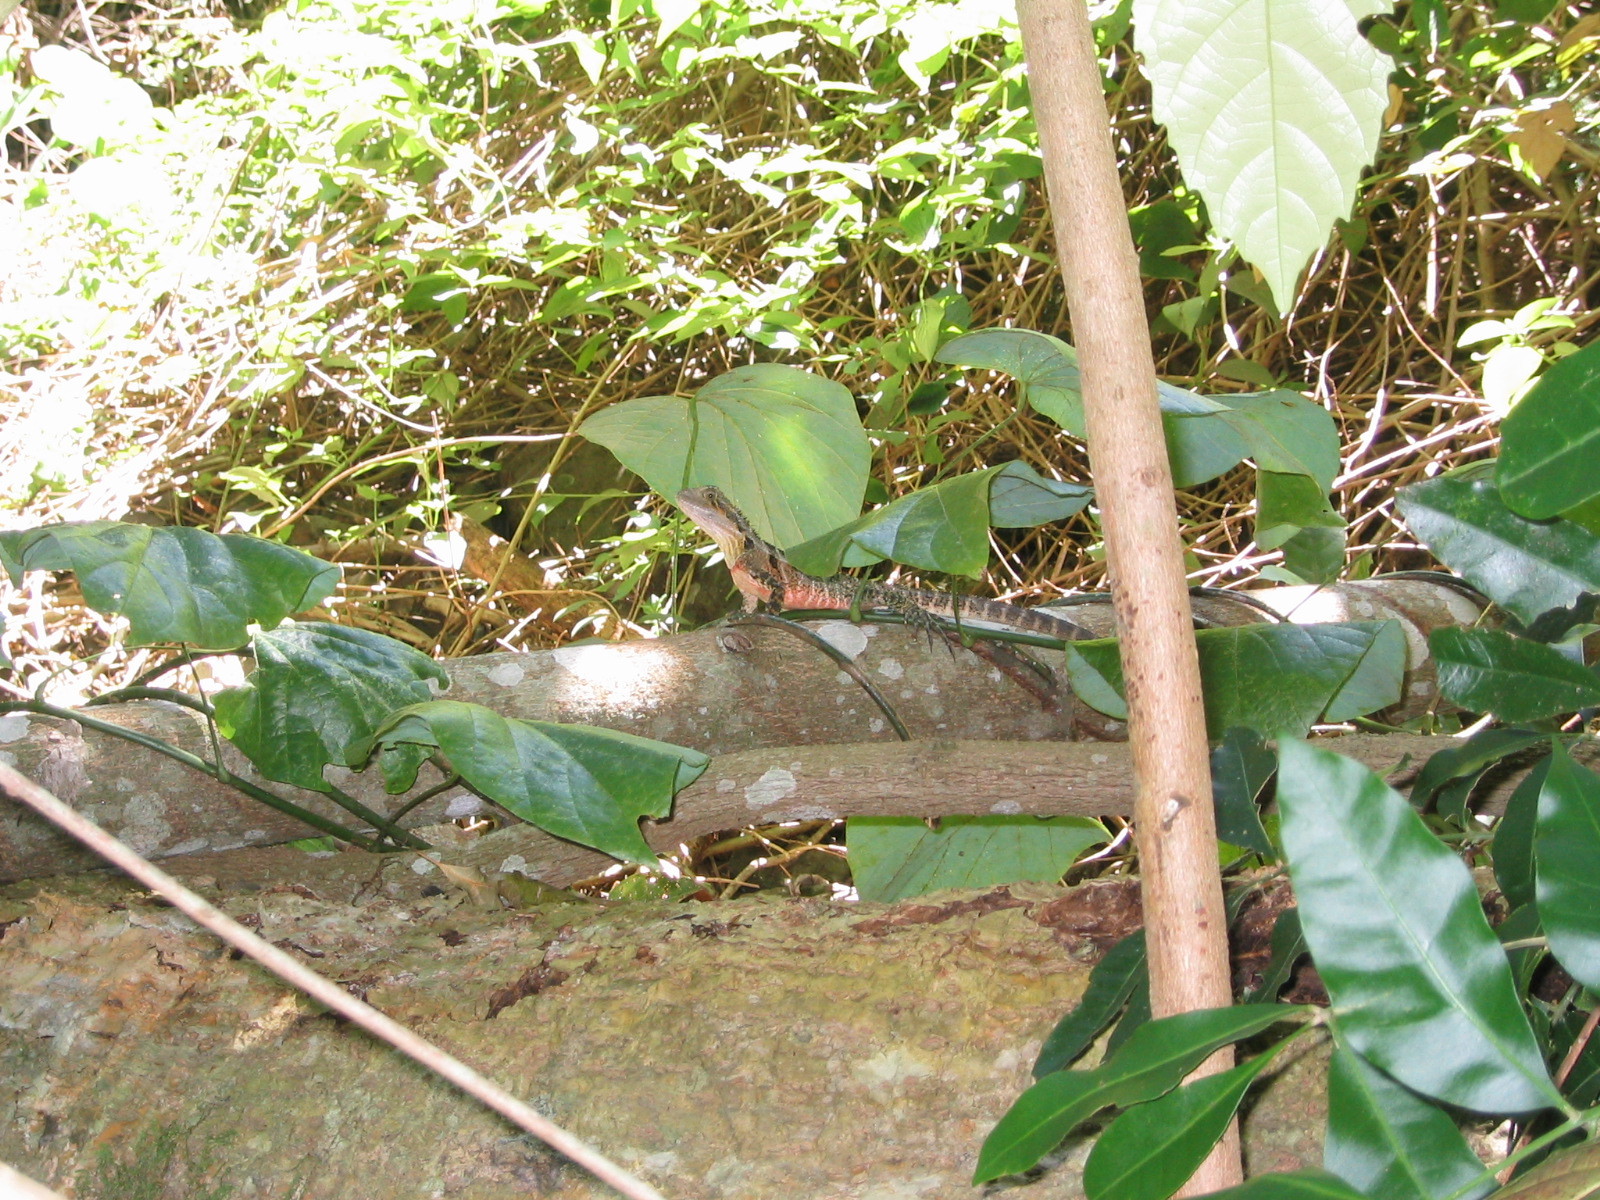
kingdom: Animalia
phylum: Chordata
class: Squamata
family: Agamidae
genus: Intellagama
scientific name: Intellagama lesueurii
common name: Eastern water dragon
